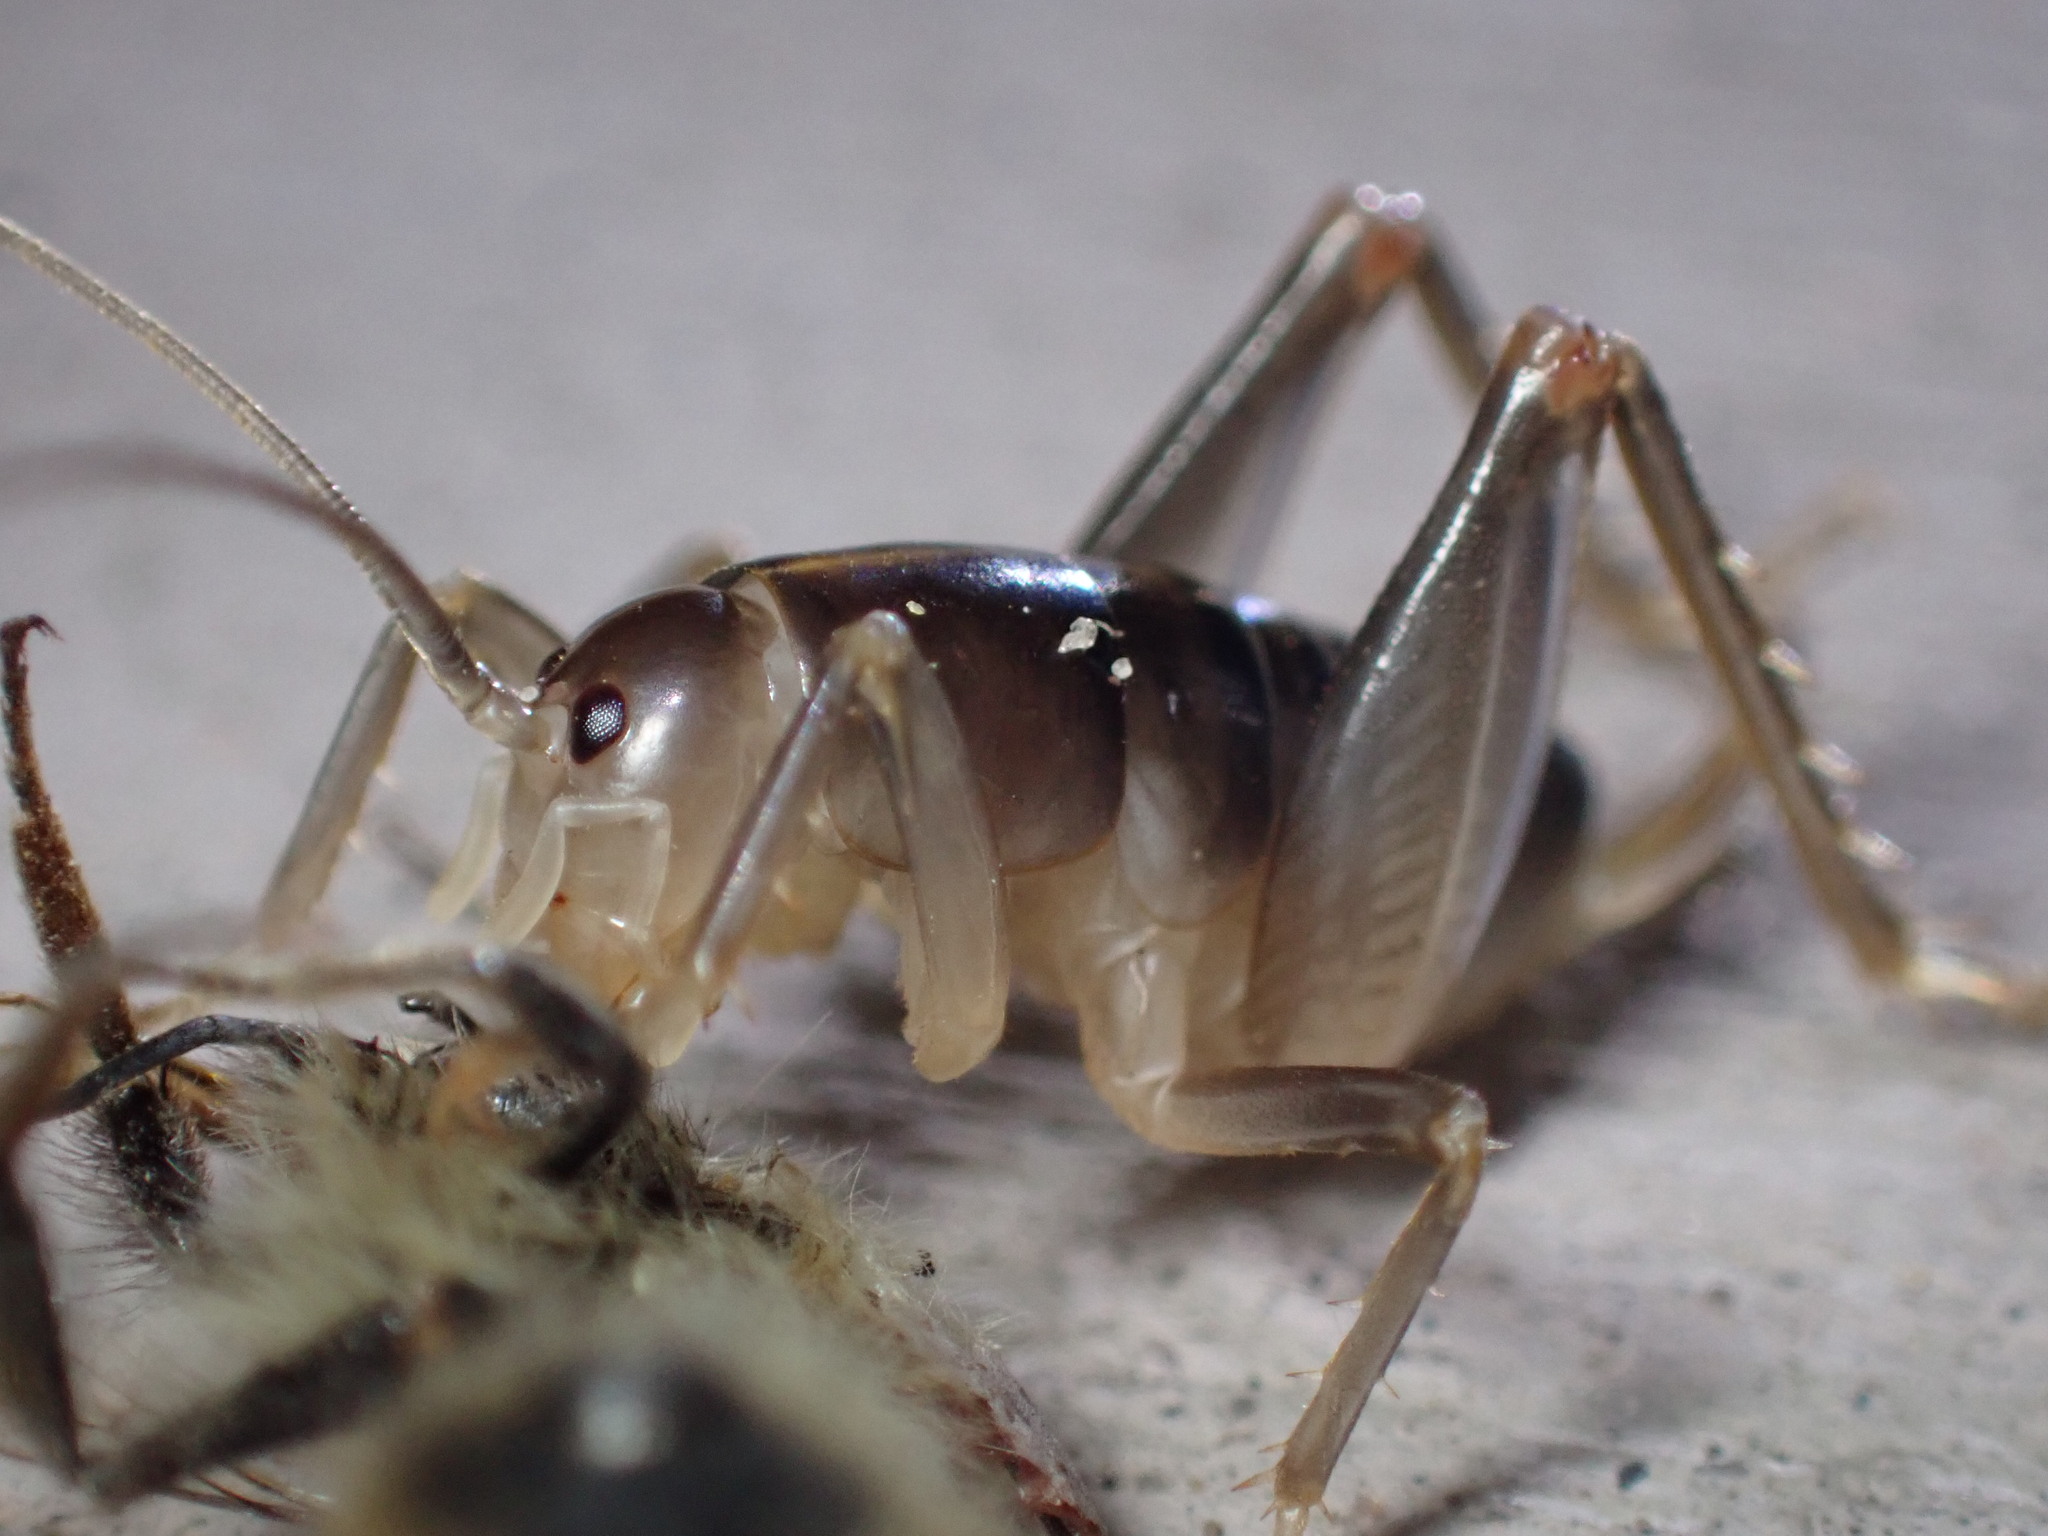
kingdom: Animalia
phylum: Arthropoda
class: Insecta
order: Orthoptera
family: Rhaphidophoridae
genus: Ceuthophilus
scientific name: Ceuthophilus californianus
